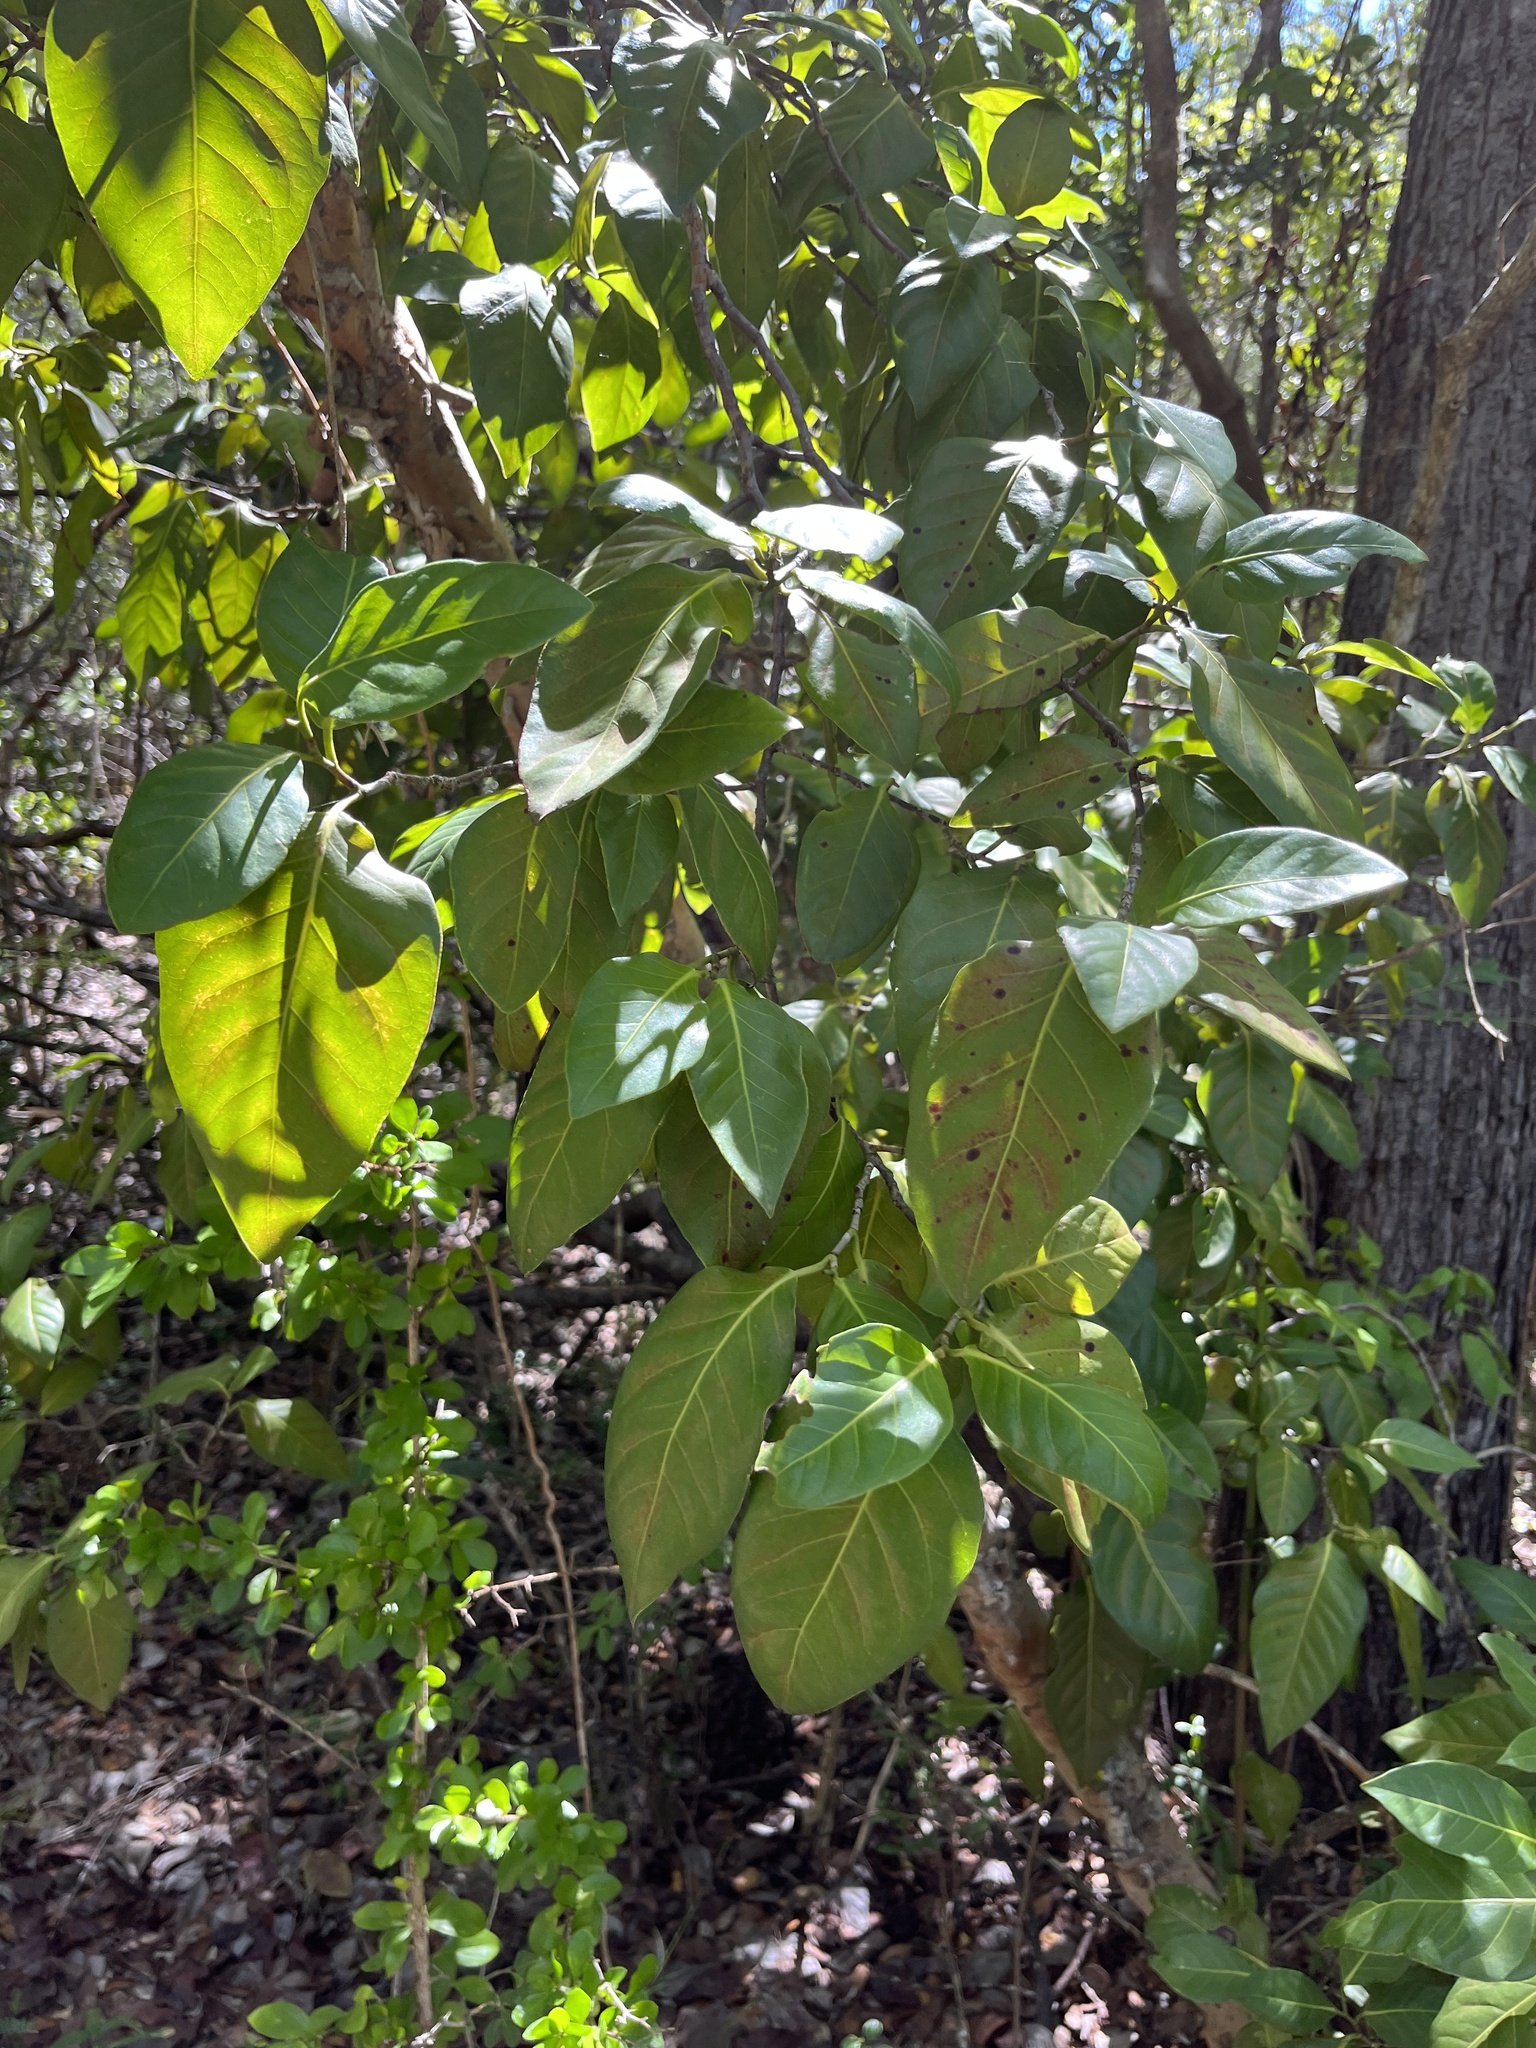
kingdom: Plantae
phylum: Tracheophyta
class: Magnoliopsida
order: Caryophyllales
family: Polygonaceae
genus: Coccoloba
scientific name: Coccoloba diversifolia
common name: Pigeon-plum
